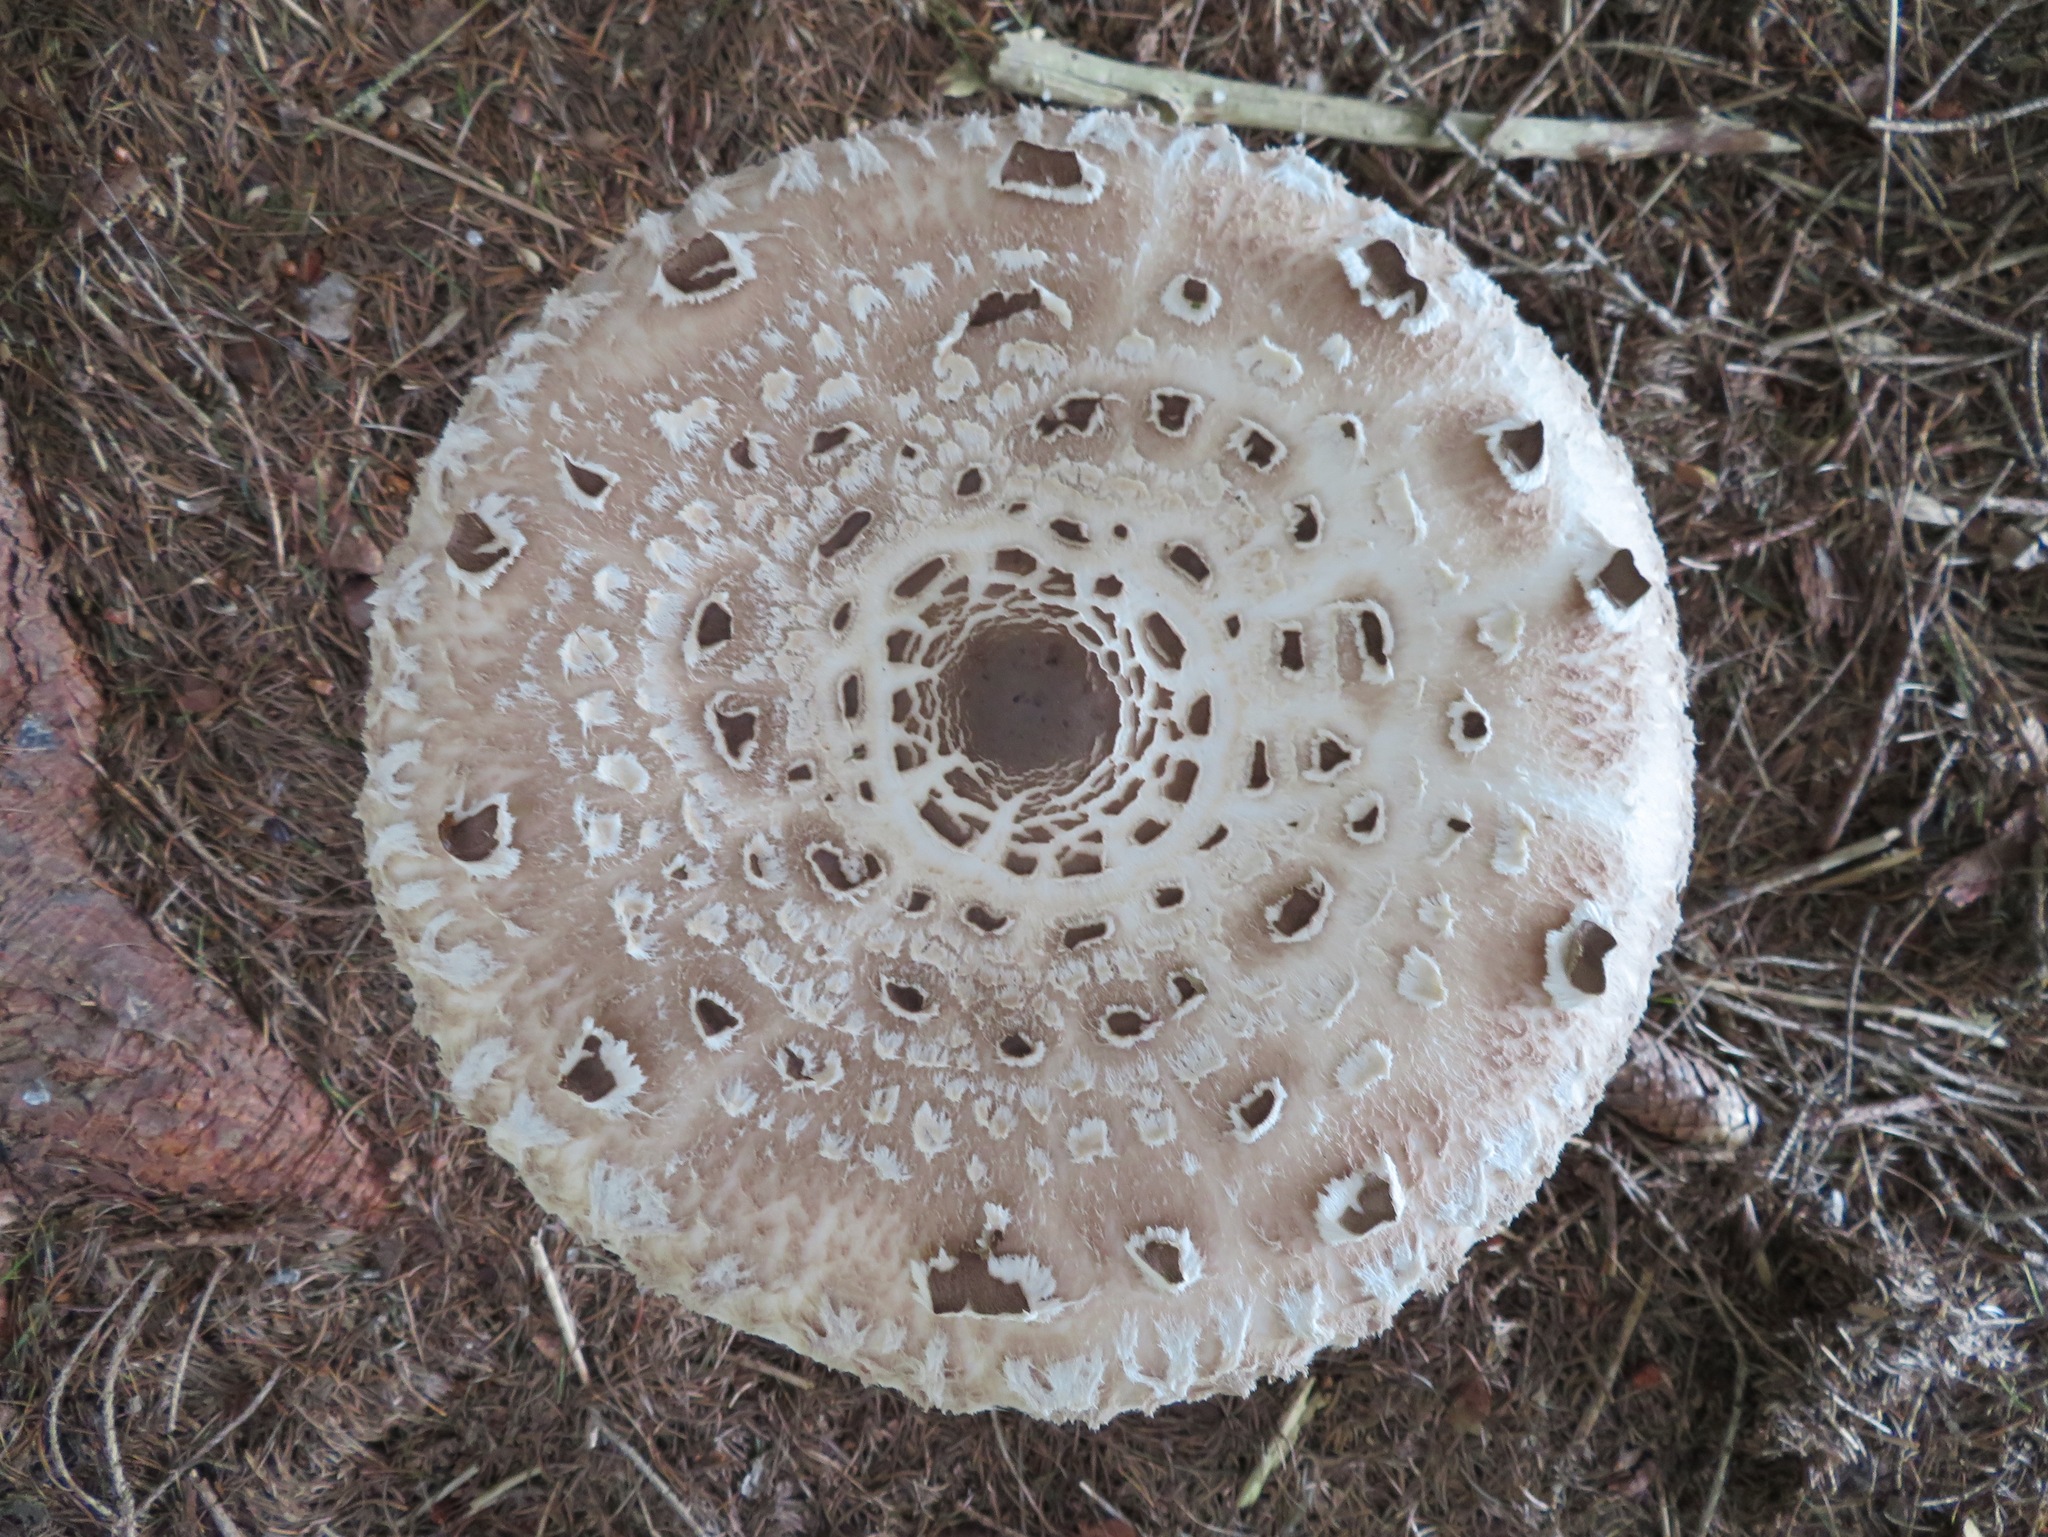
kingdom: Fungi
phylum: Basidiomycota
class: Agaricomycetes
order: Agaricales
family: Agaricaceae
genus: Macrolepiota
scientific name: Macrolepiota procera
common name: Parasol
